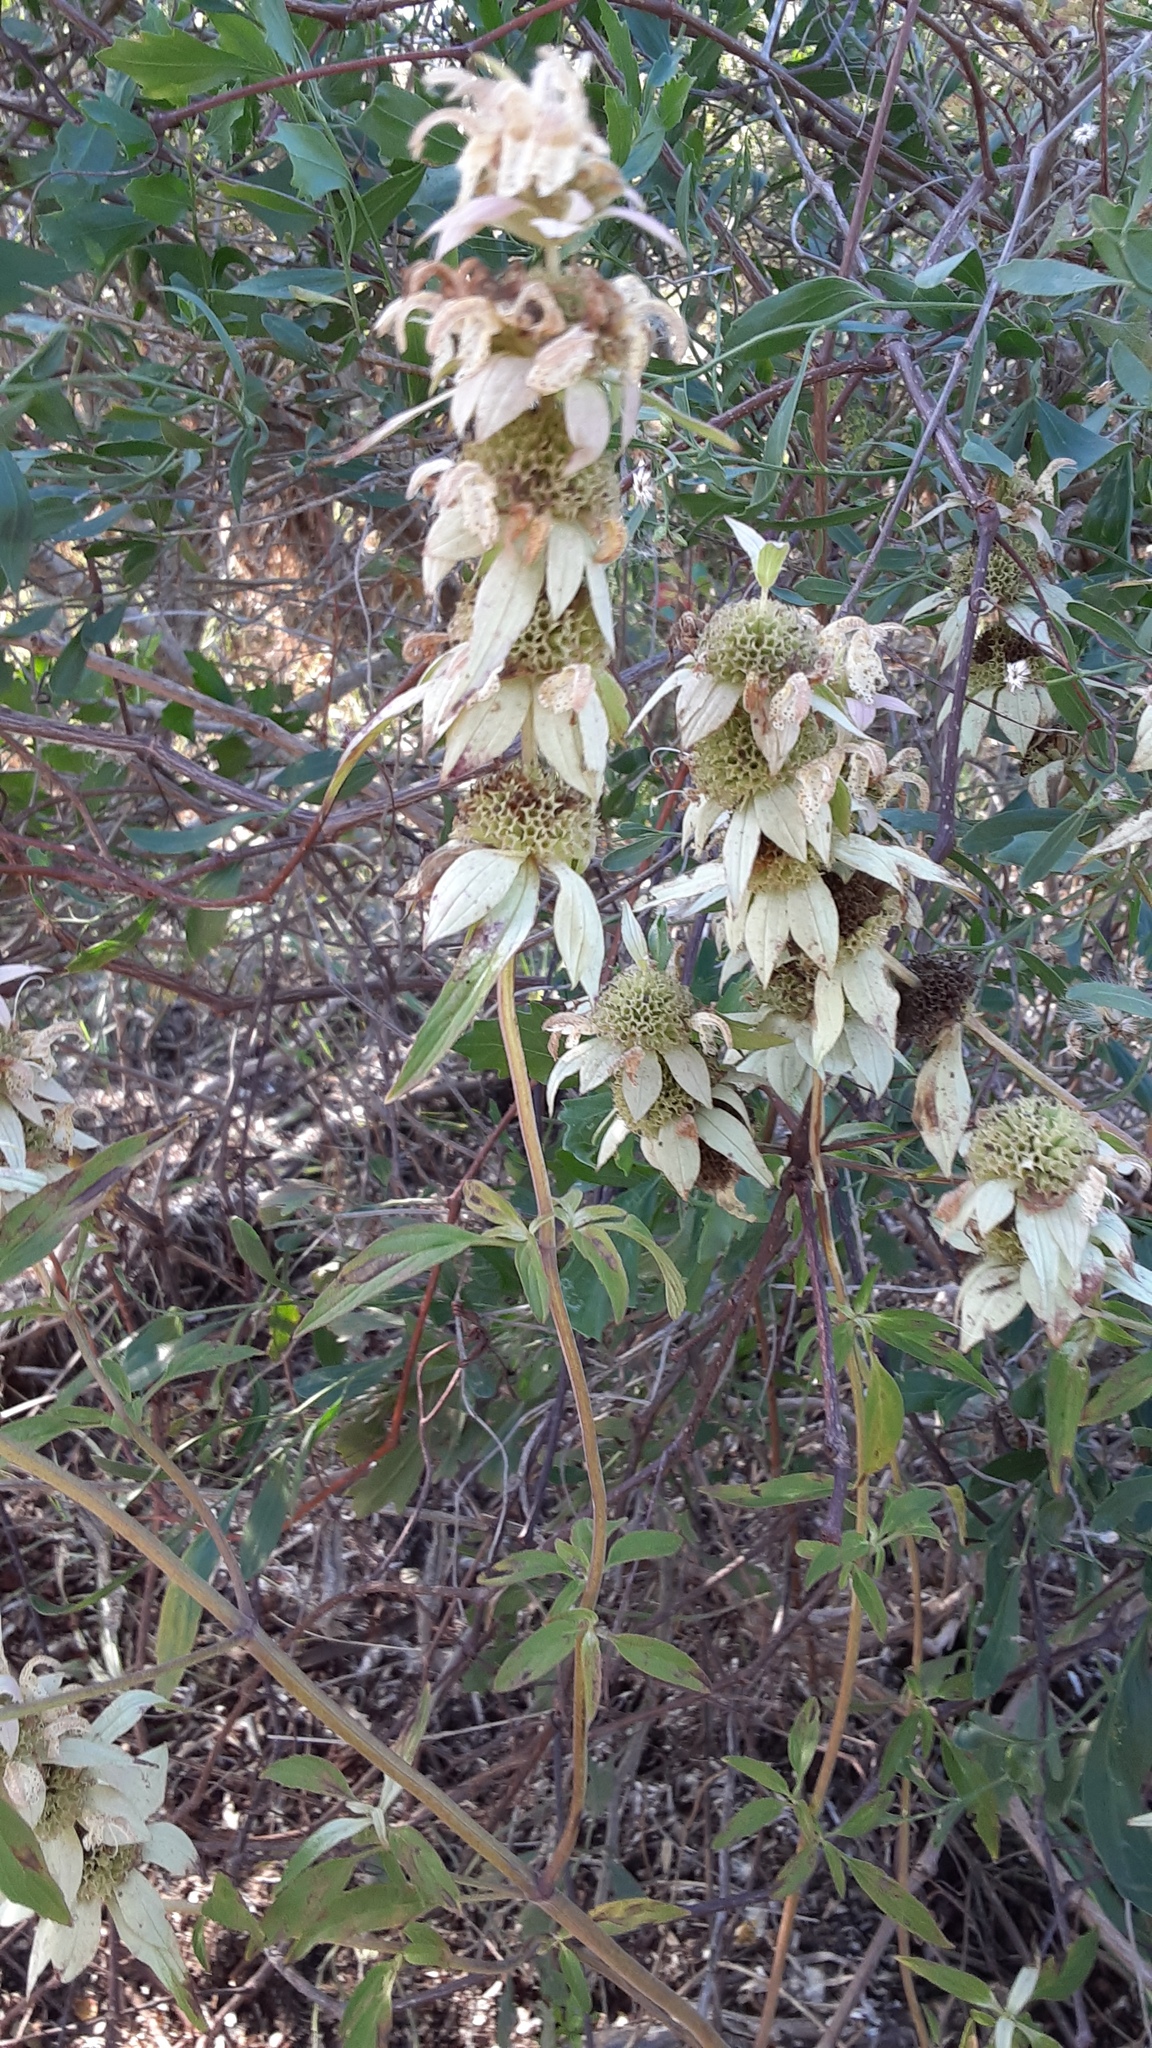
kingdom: Plantae
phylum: Tracheophyta
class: Magnoliopsida
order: Lamiales
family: Lamiaceae
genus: Monarda
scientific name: Monarda punctata
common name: Dotted monarda
